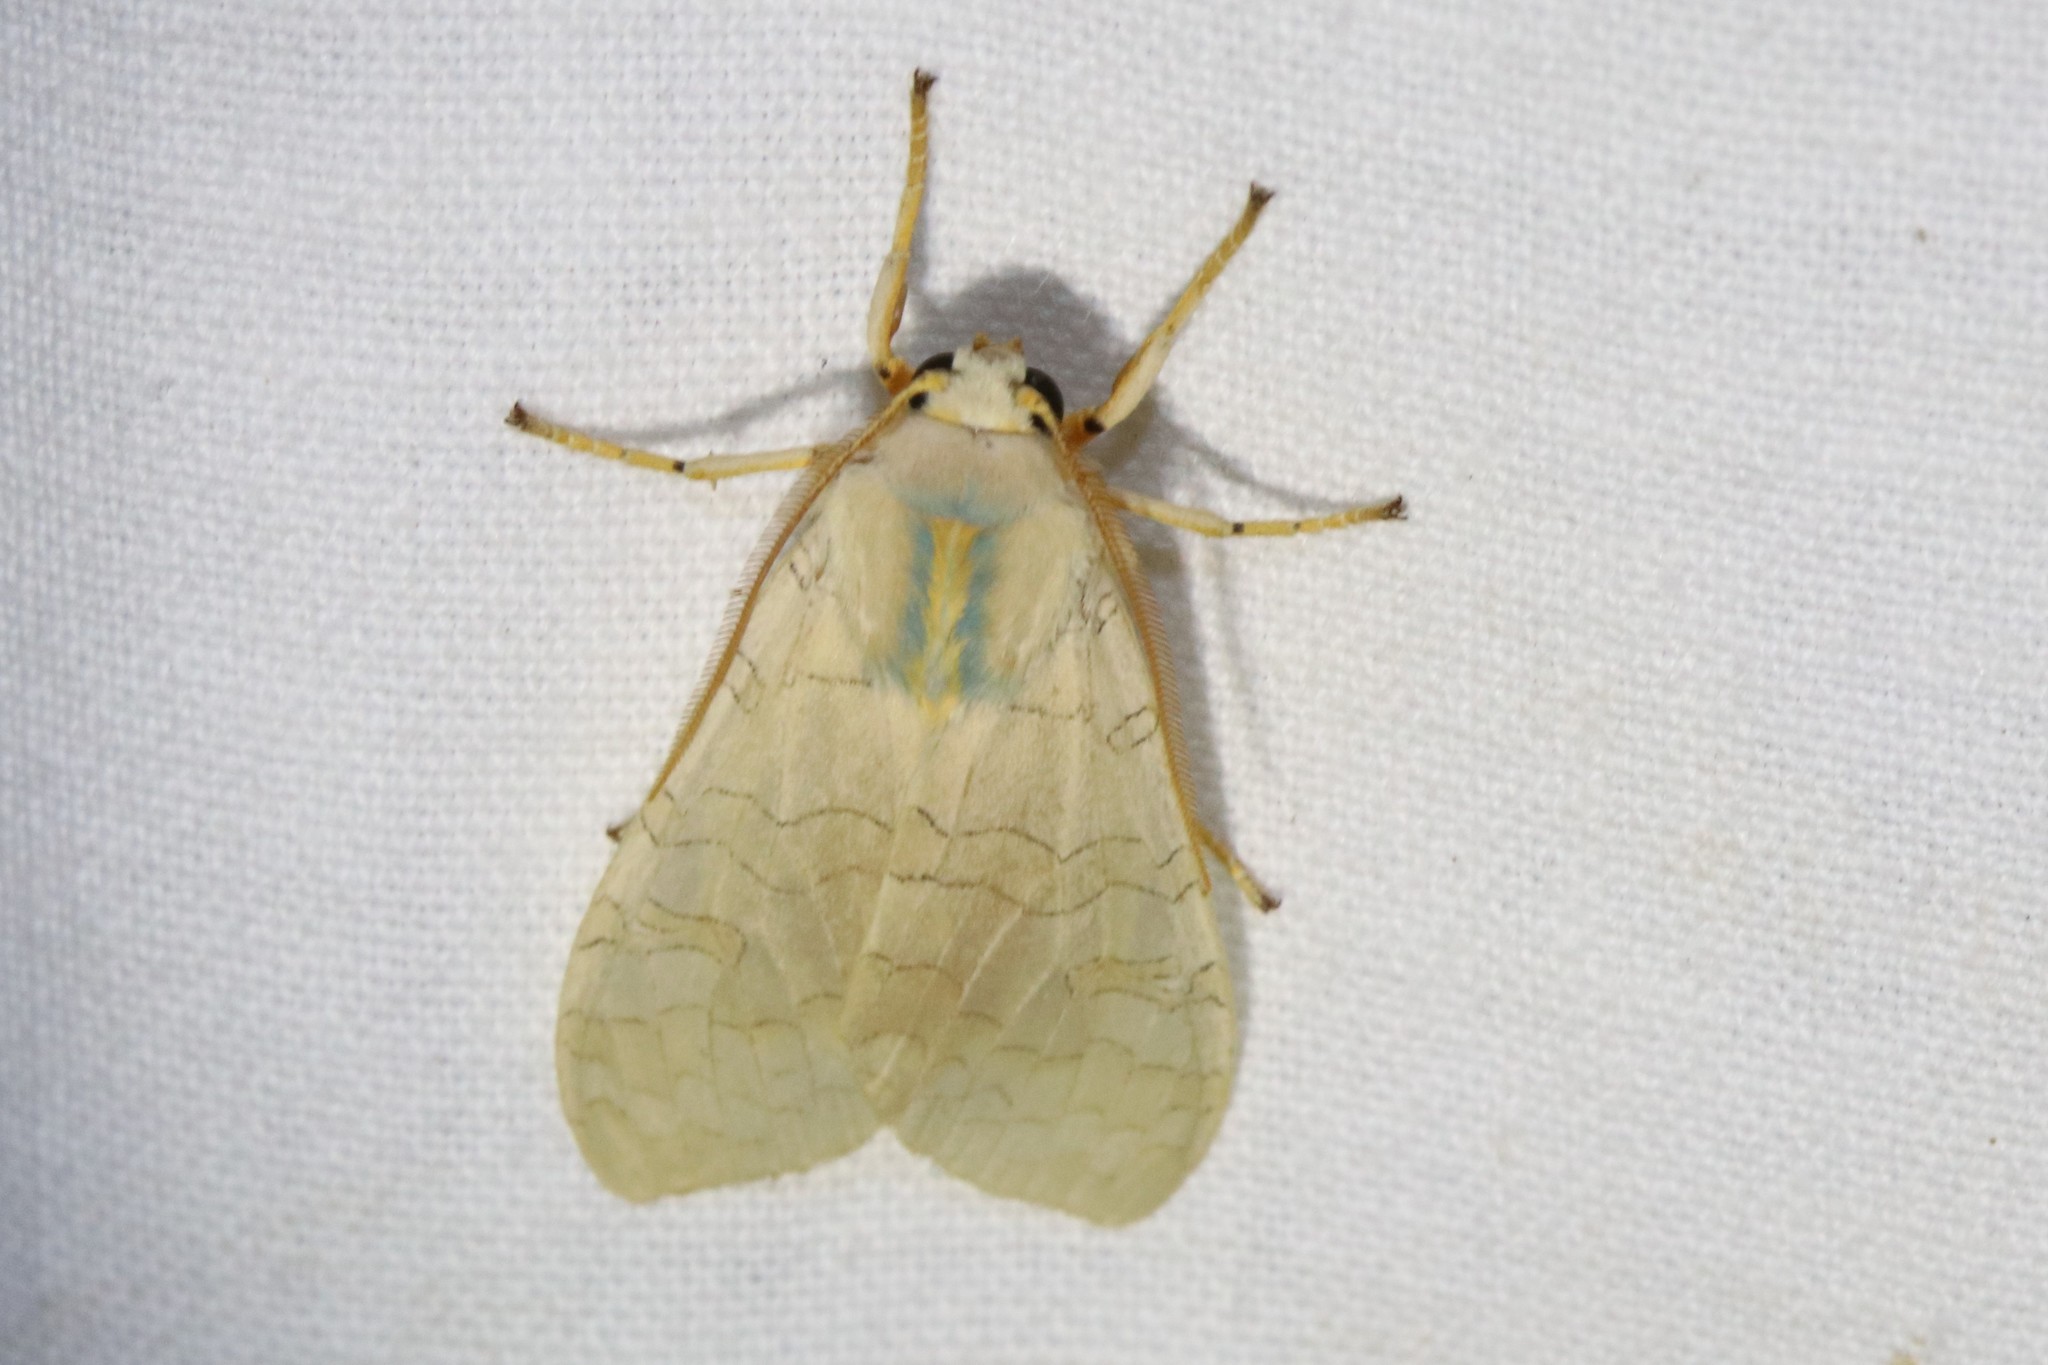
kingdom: Animalia
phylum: Arthropoda
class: Insecta
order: Lepidoptera
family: Erebidae
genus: Halysidota
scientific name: Halysidota tessellaris
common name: Banded tussock moth
